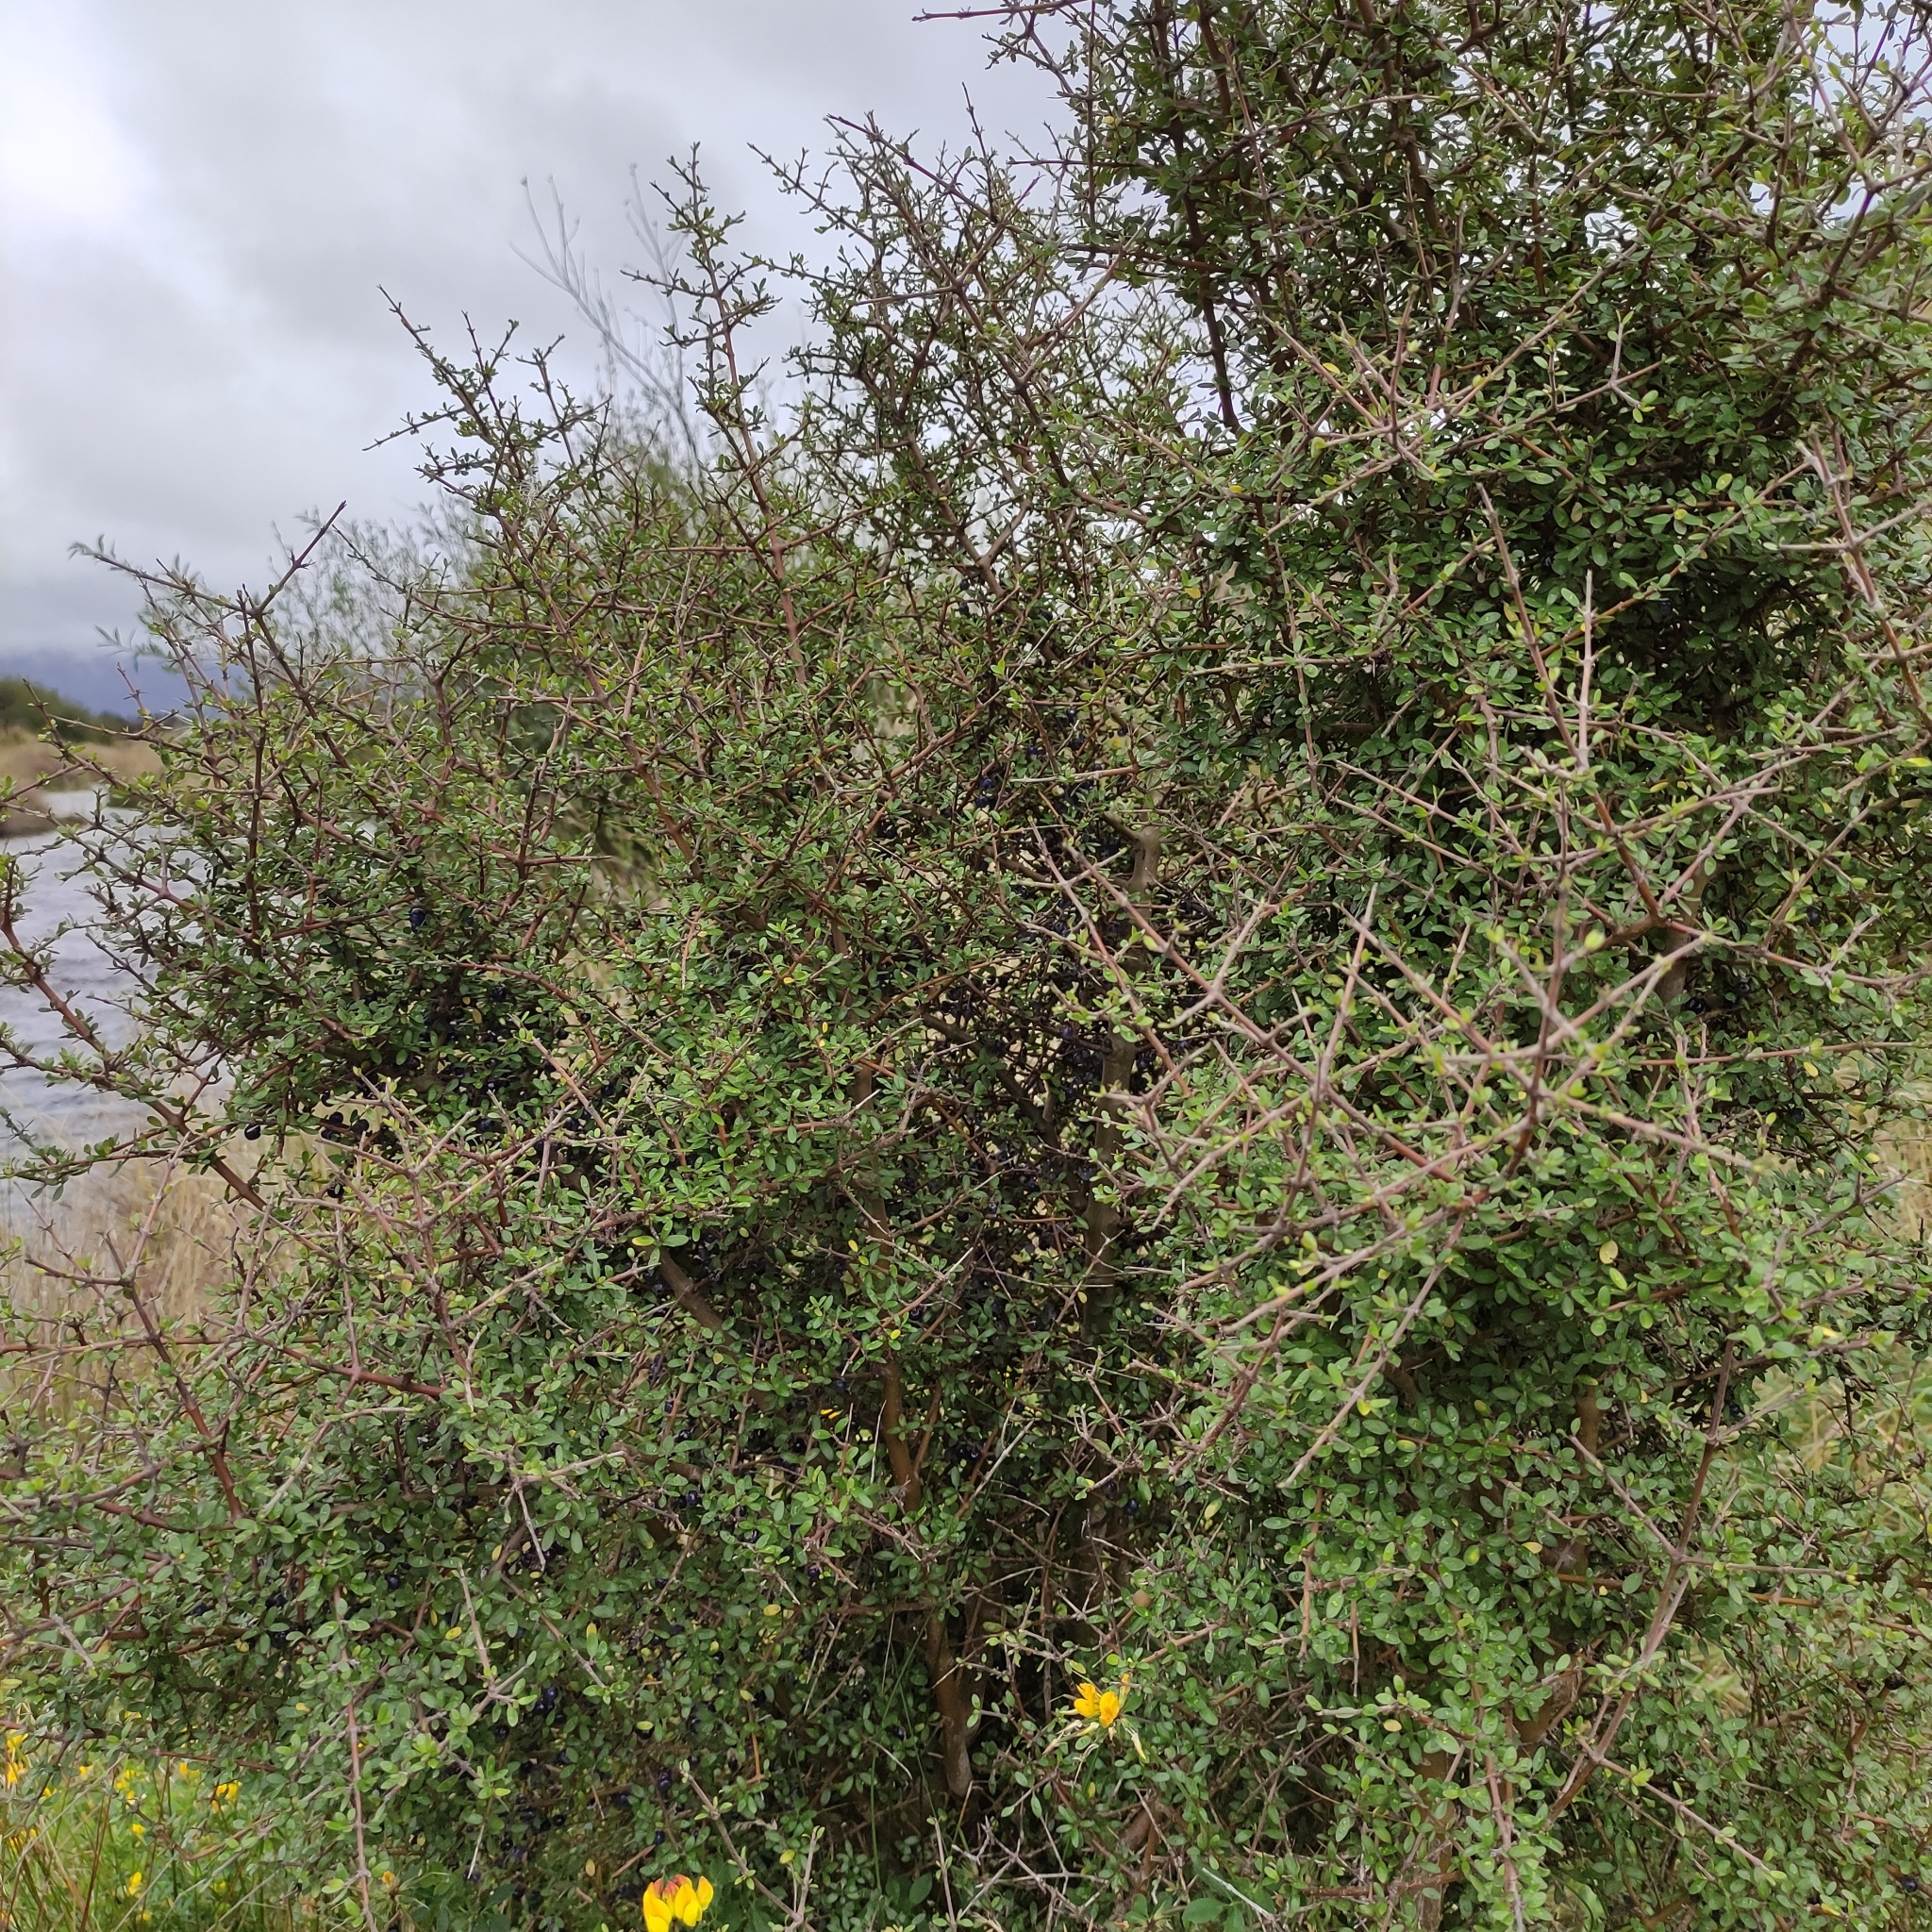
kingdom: Plantae
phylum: Tracheophyta
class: Magnoliopsida
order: Gentianales
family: Rubiaceae
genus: Coprosma
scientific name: Coprosma propinqua
